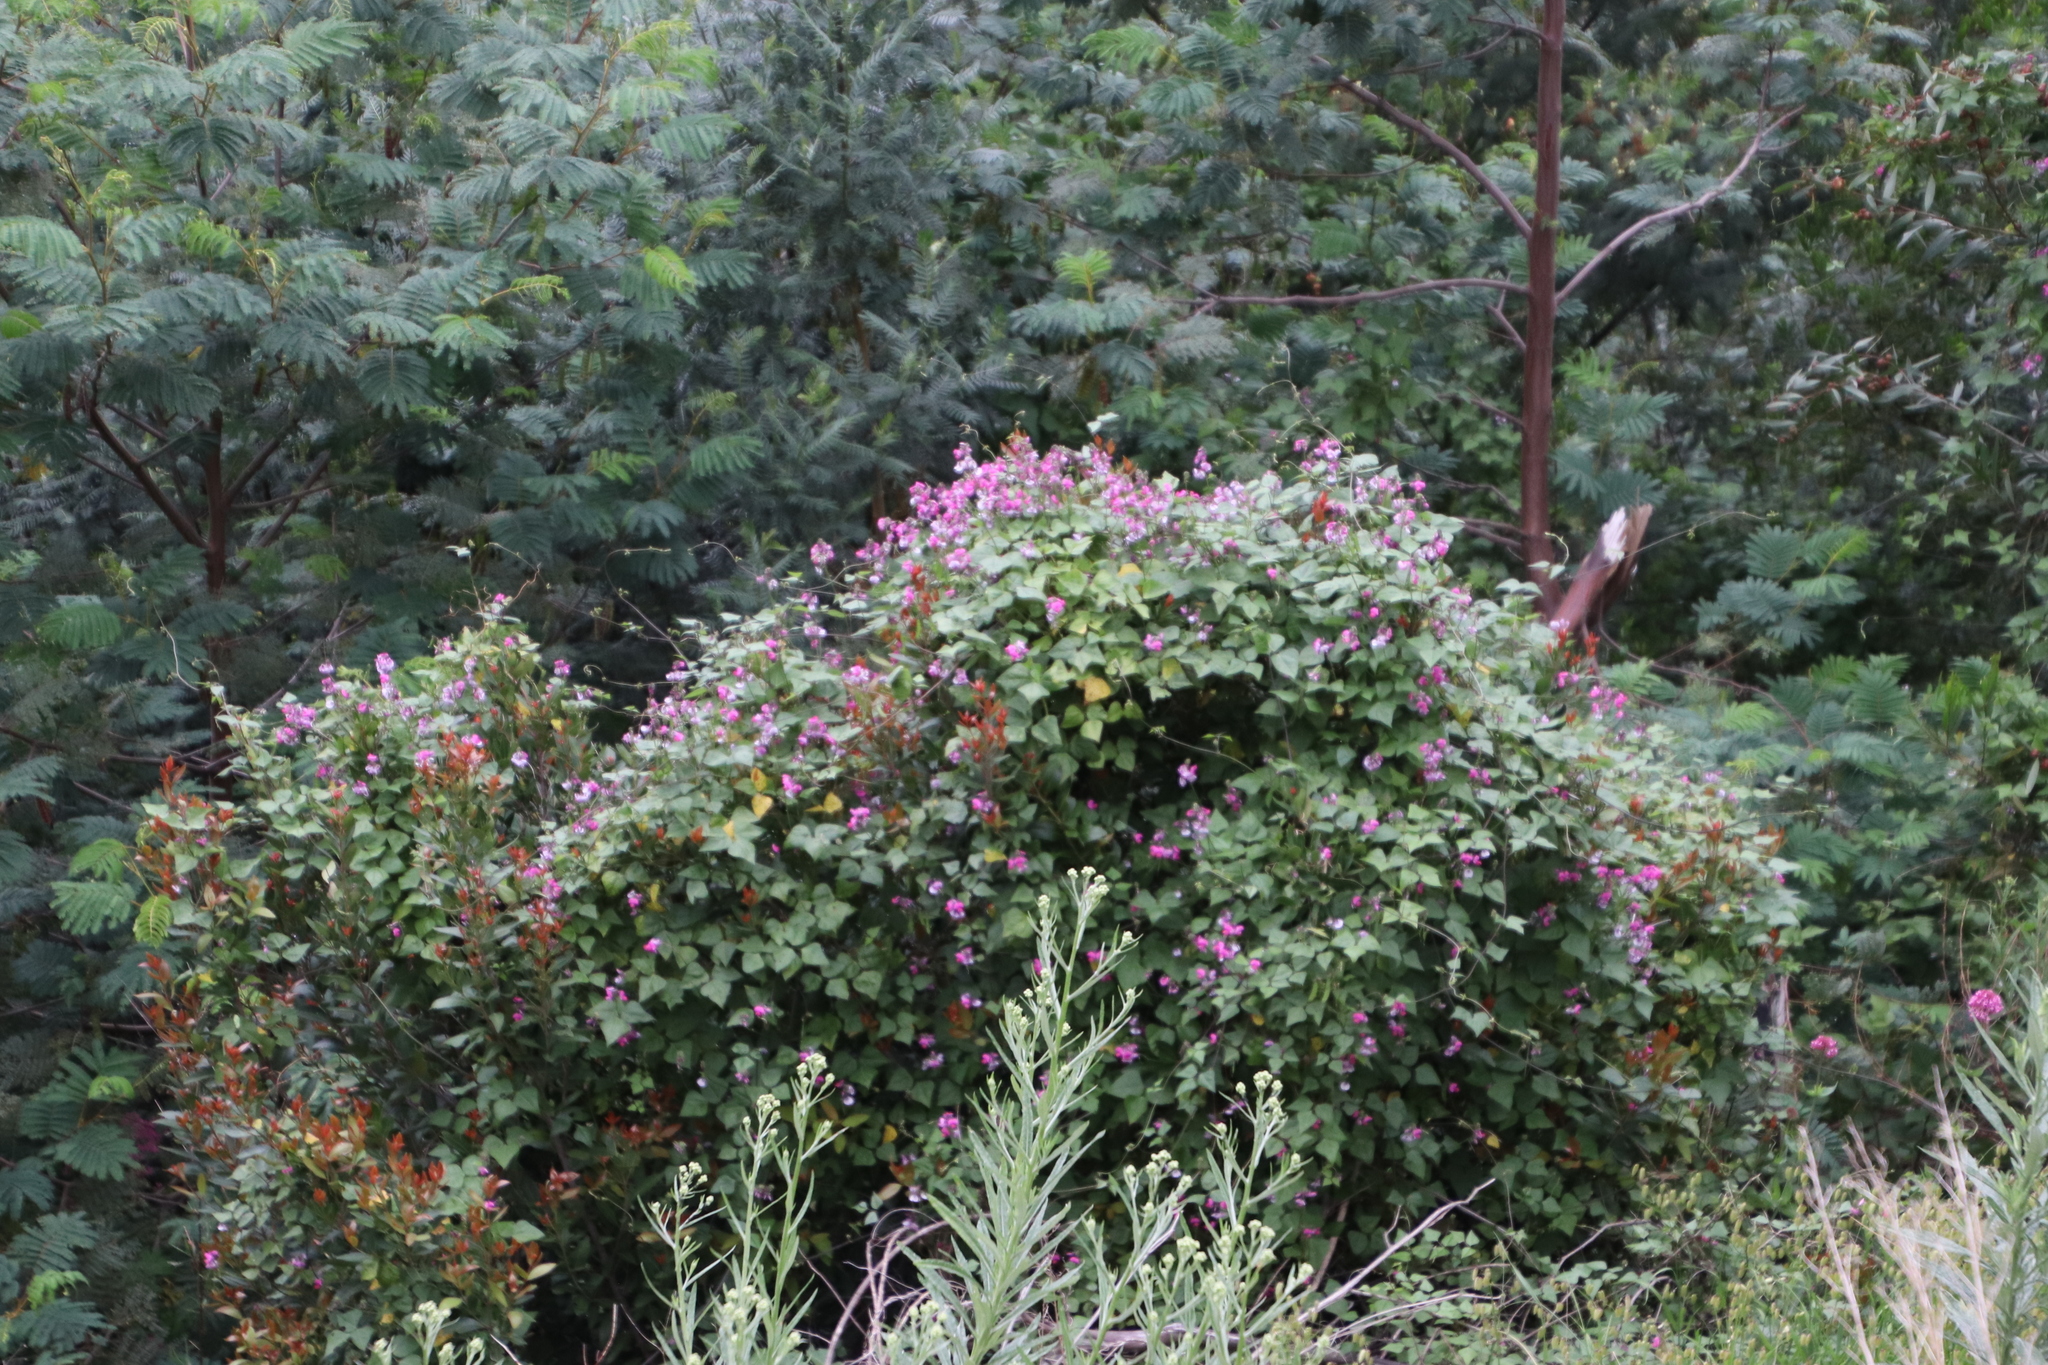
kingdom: Plantae
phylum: Tracheophyta
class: Magnoliopsida
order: Fabales
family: Fabaceae
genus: Dipogon
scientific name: Dipogon lignosus
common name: Okie bean
